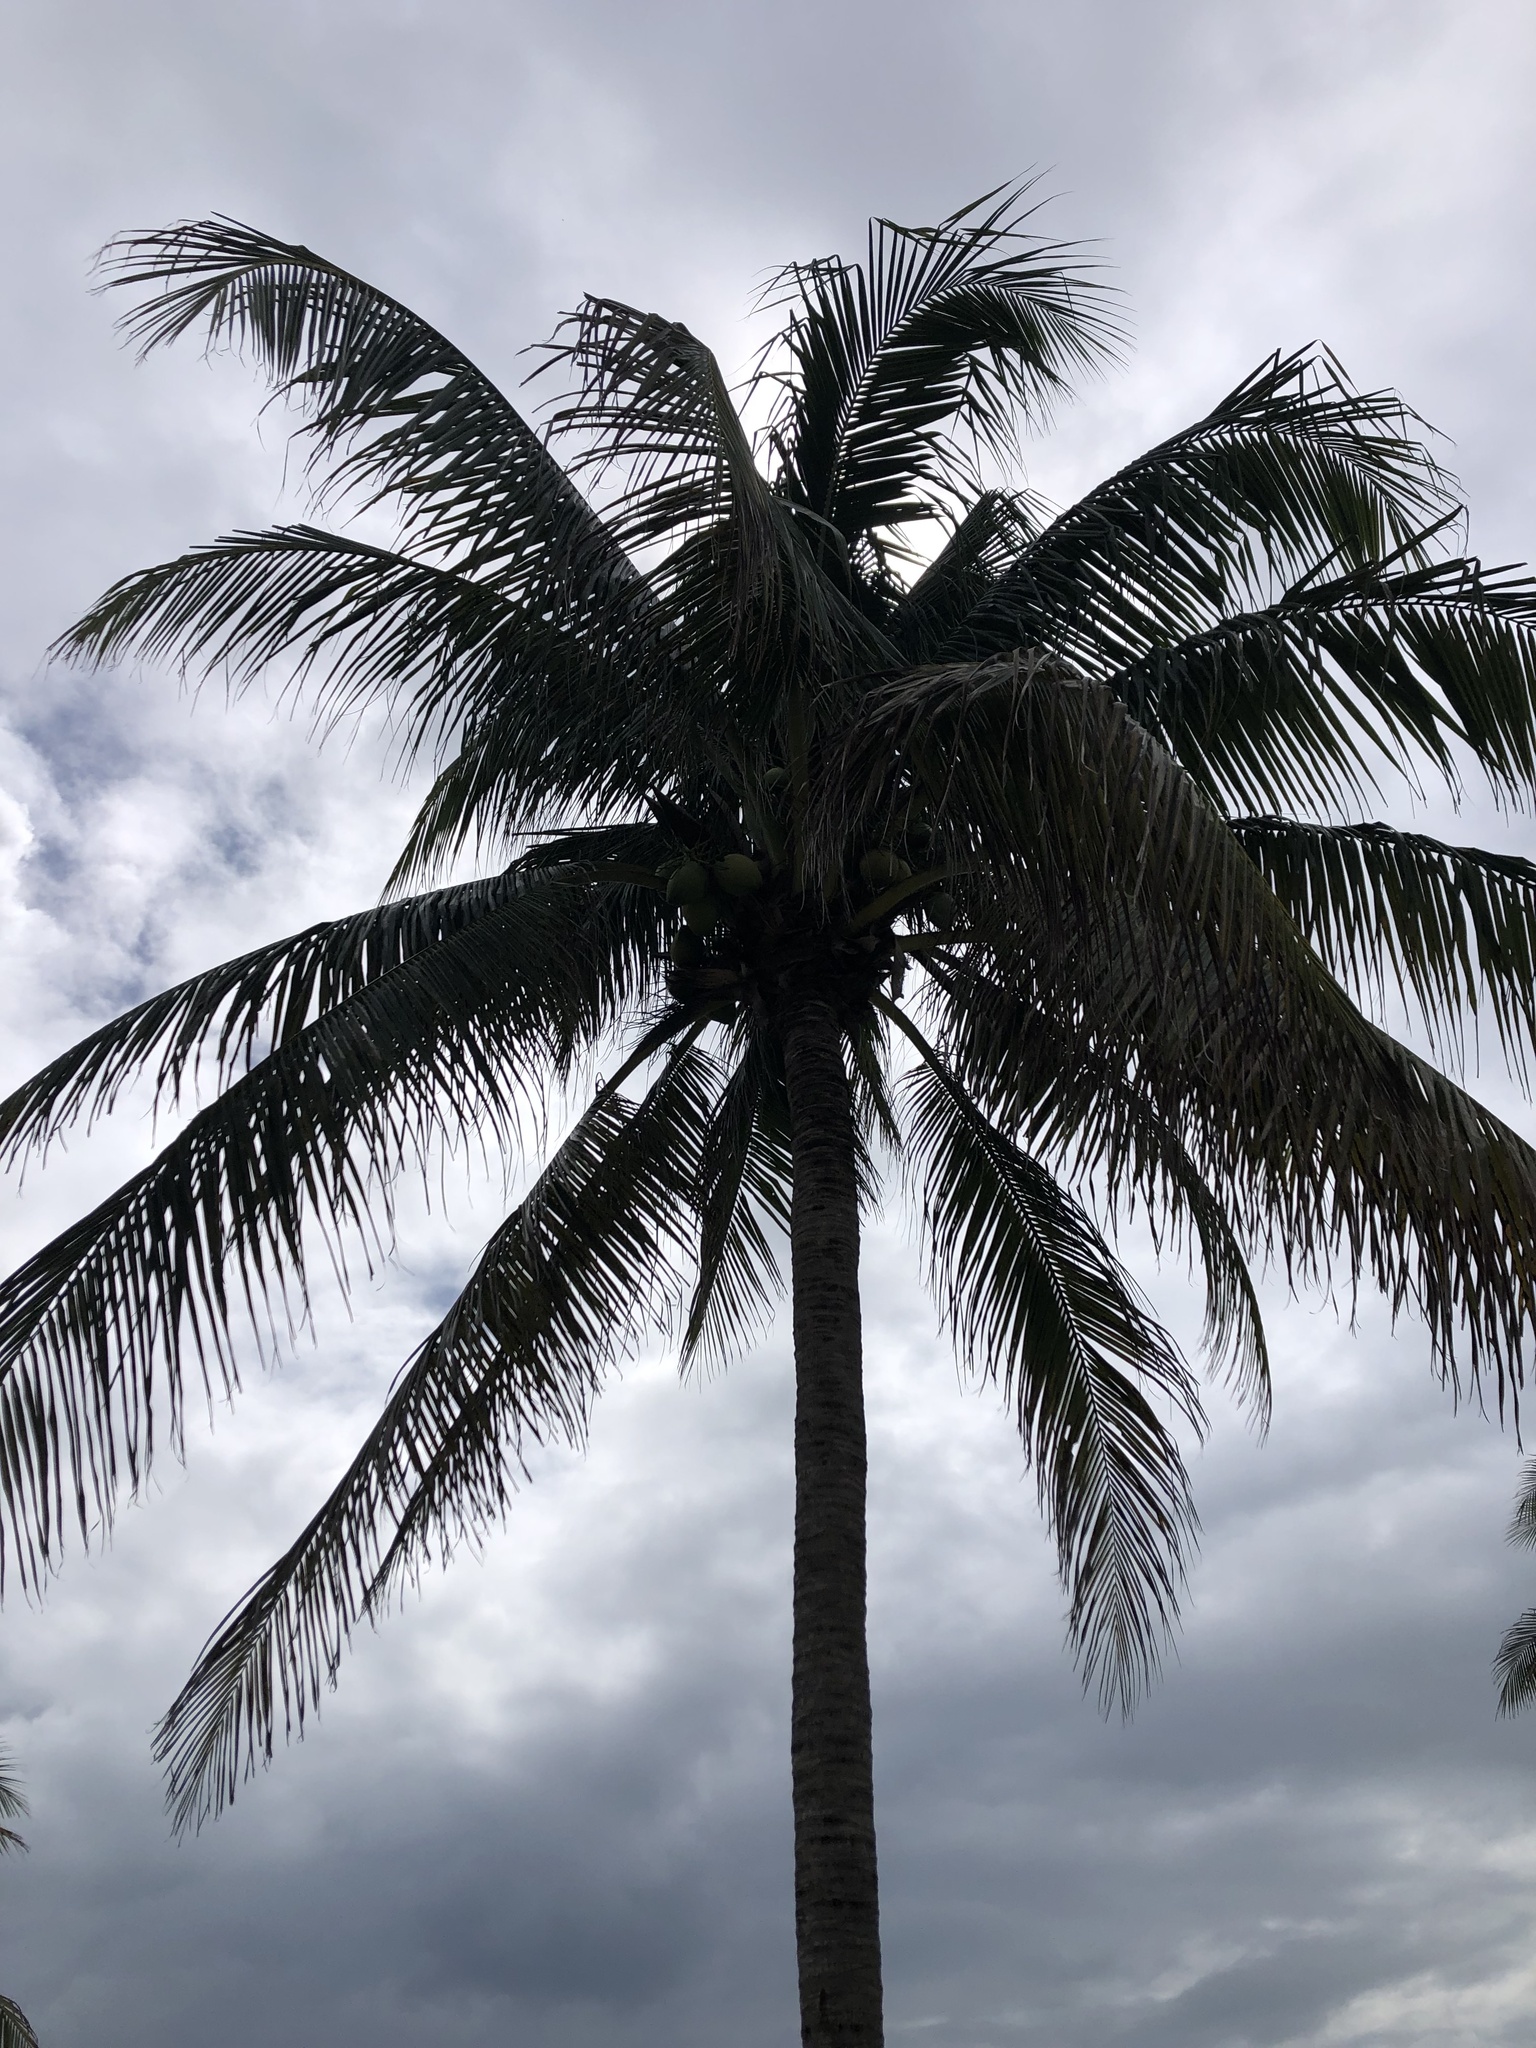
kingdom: Plantae
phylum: Tracheophyta
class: Liliopsida
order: Arecales
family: Arecaceae
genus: Cocos
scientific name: Cocos nucifera
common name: Coconut palm
